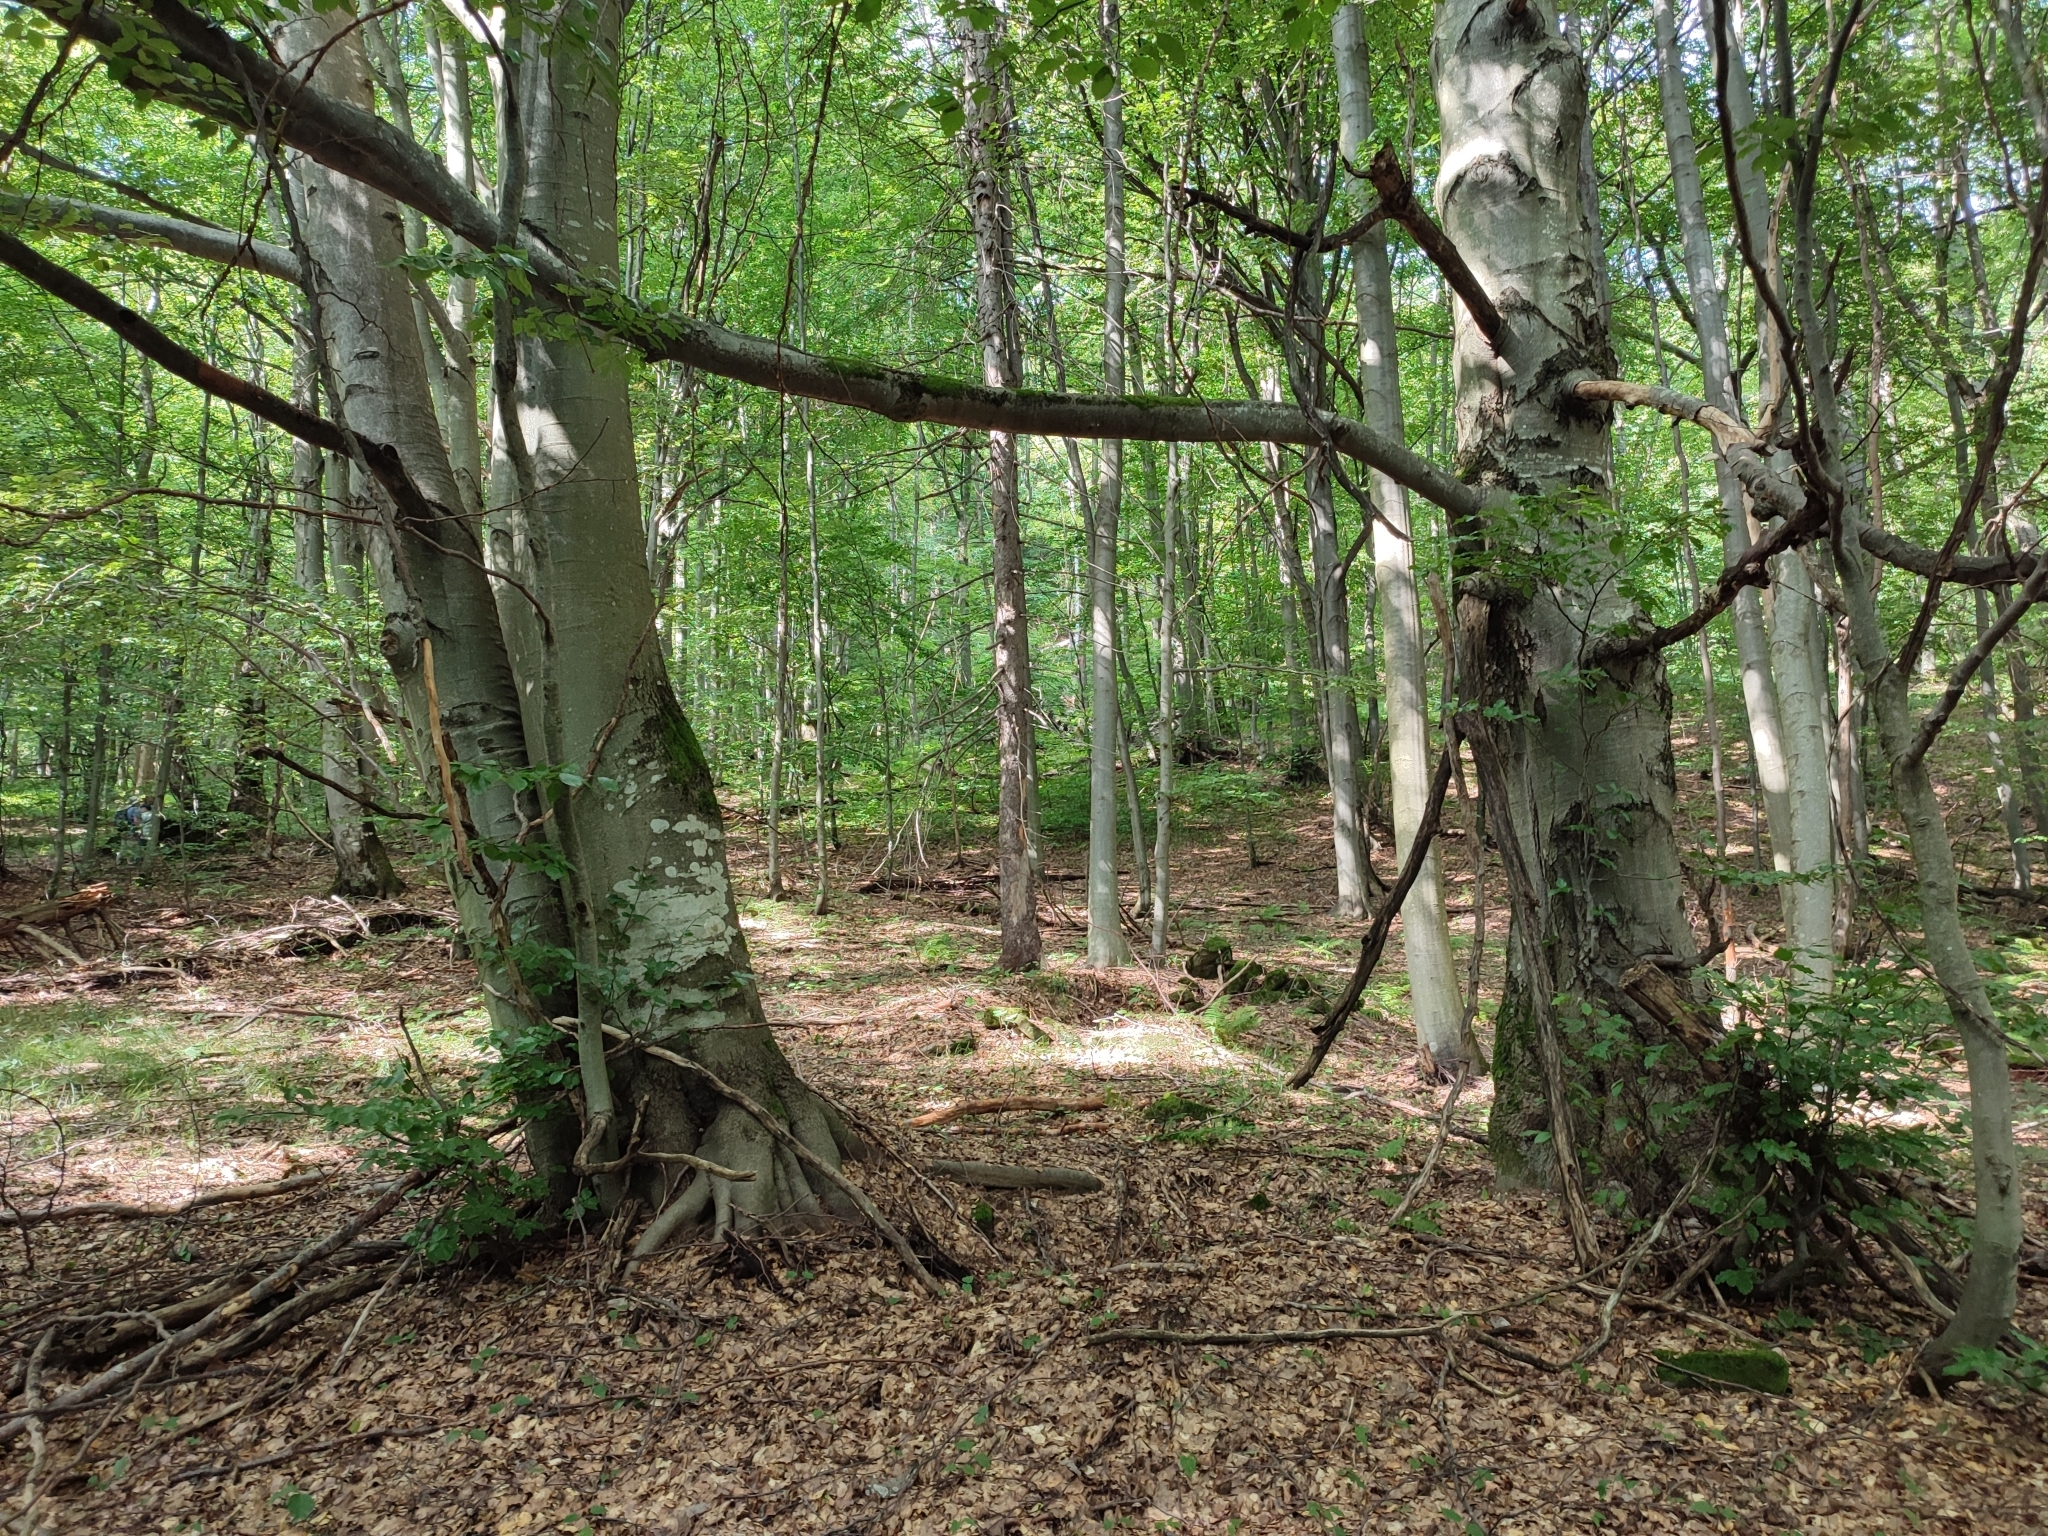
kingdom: Plantae
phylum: Tracheophyta
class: Magnoliopsida
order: Fagales
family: Fagaceae
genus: Fagus
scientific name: Fagus sylvatica
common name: Beech
